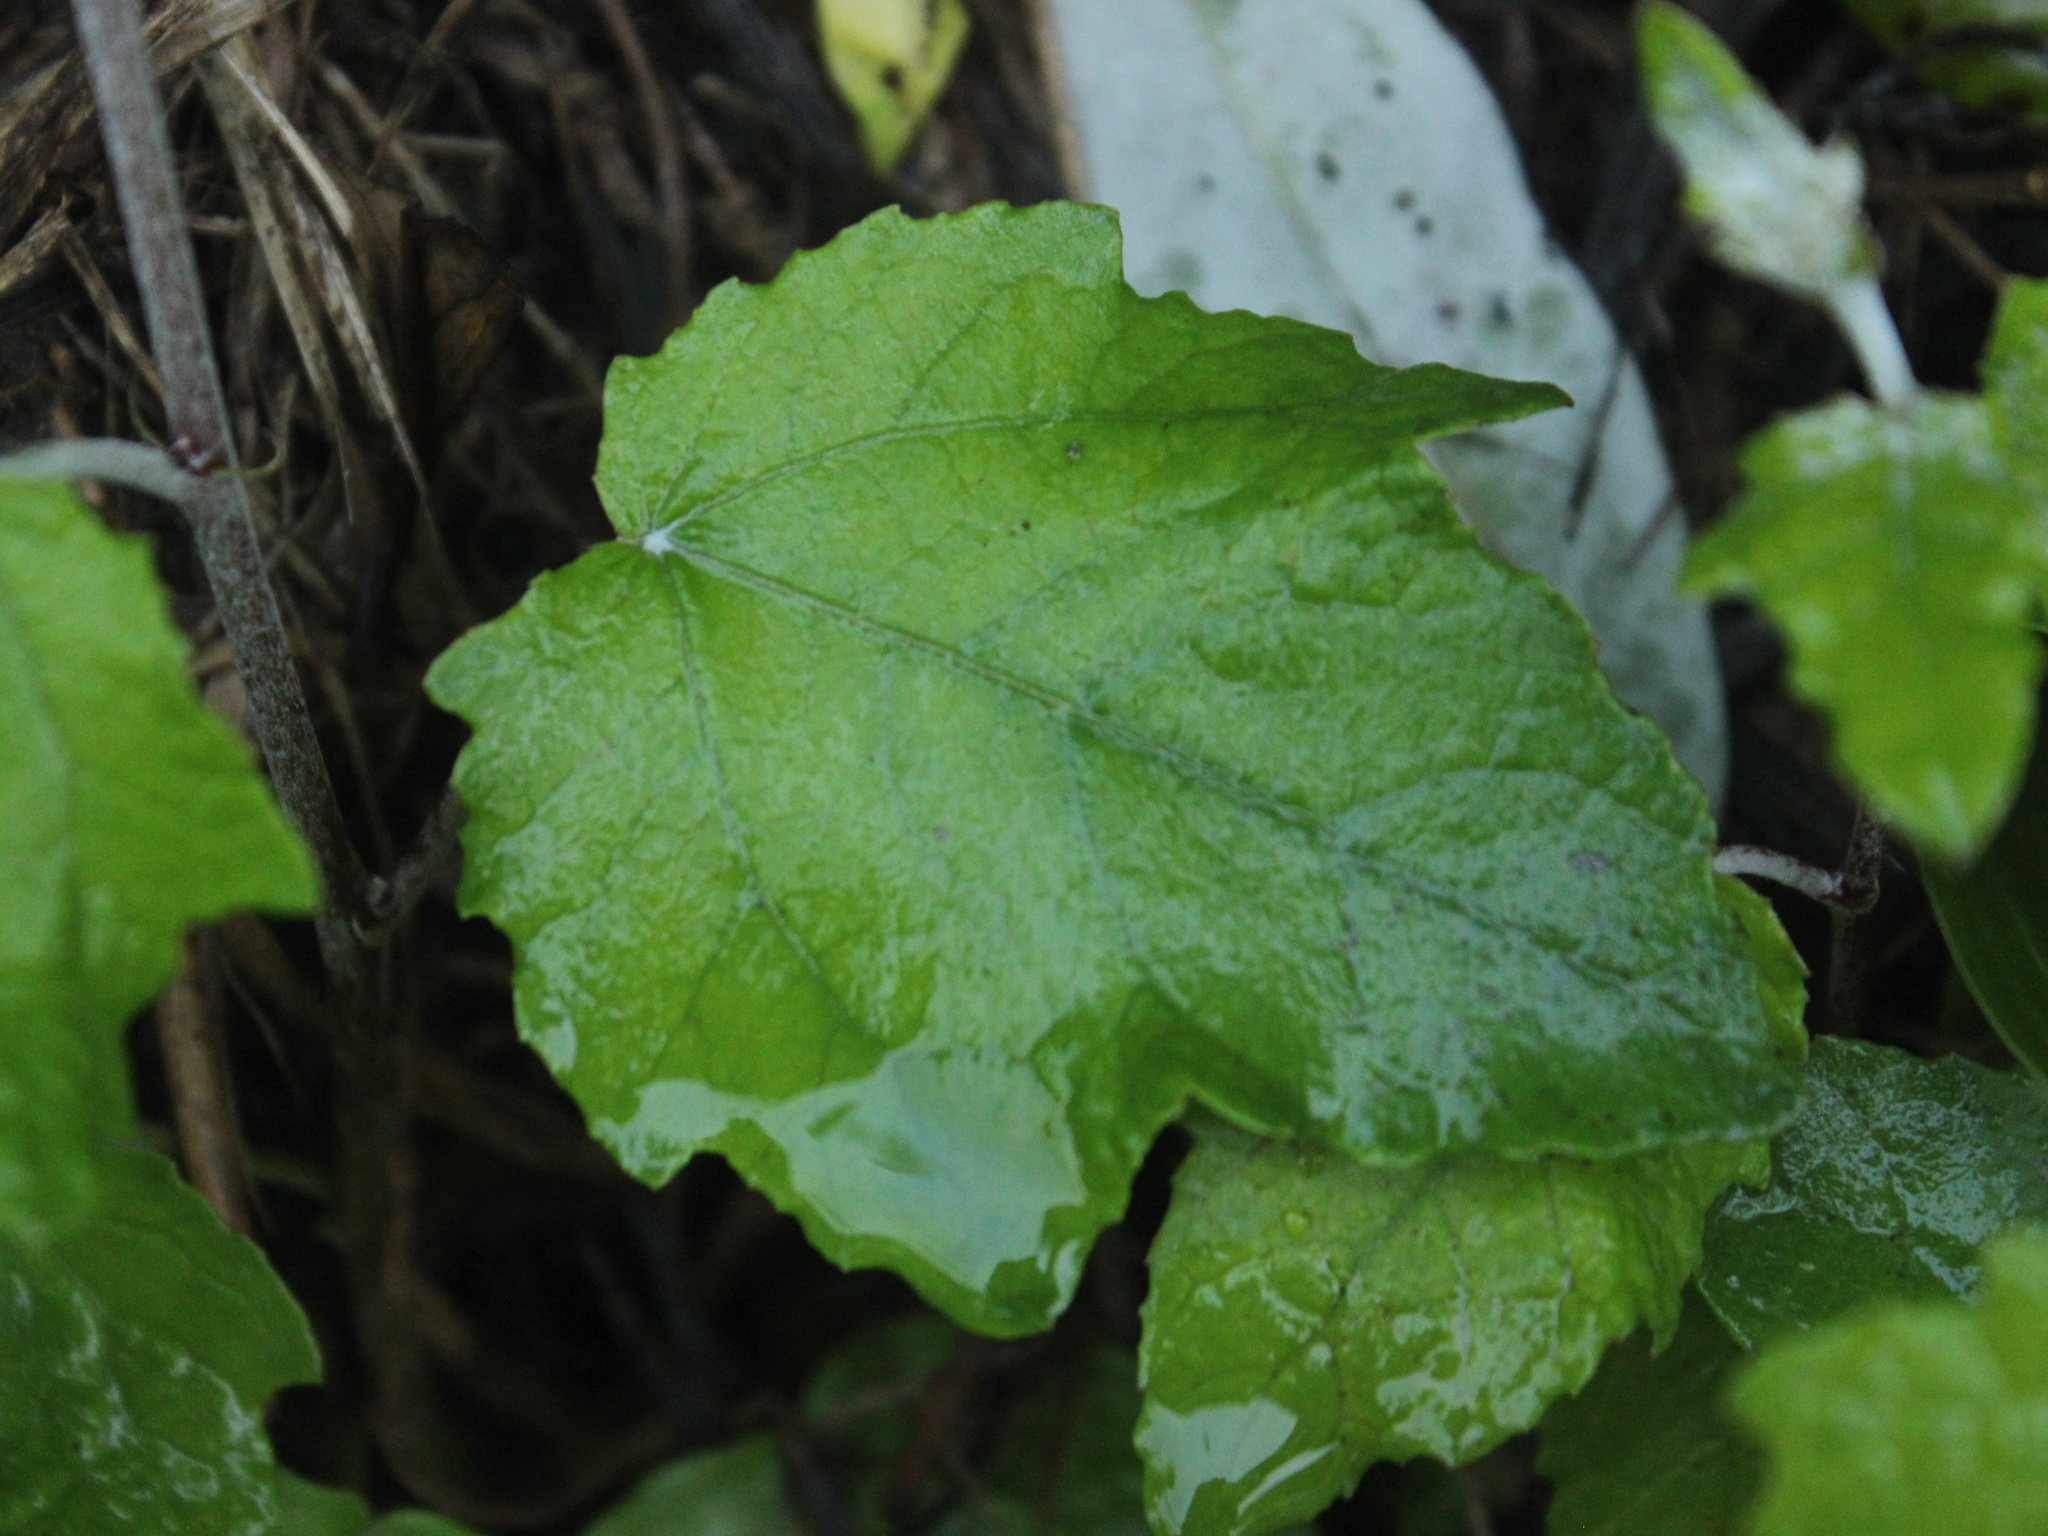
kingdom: Plantae
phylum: Tracheophyta
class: Magnoliopsida
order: Malpighiales
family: Salicaceae
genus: Populus
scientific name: Populus alba
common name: White poplar
